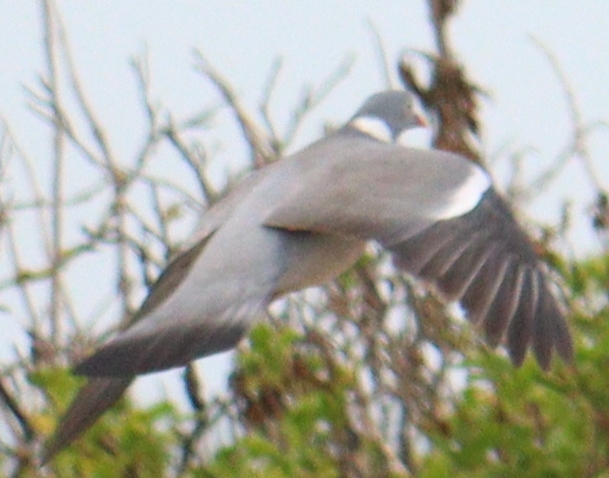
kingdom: Animalia
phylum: Chordata
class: Aves
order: Columbiformes
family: Columbidae
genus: Columba
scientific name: Columba palumbus
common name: Common wood pigeon
